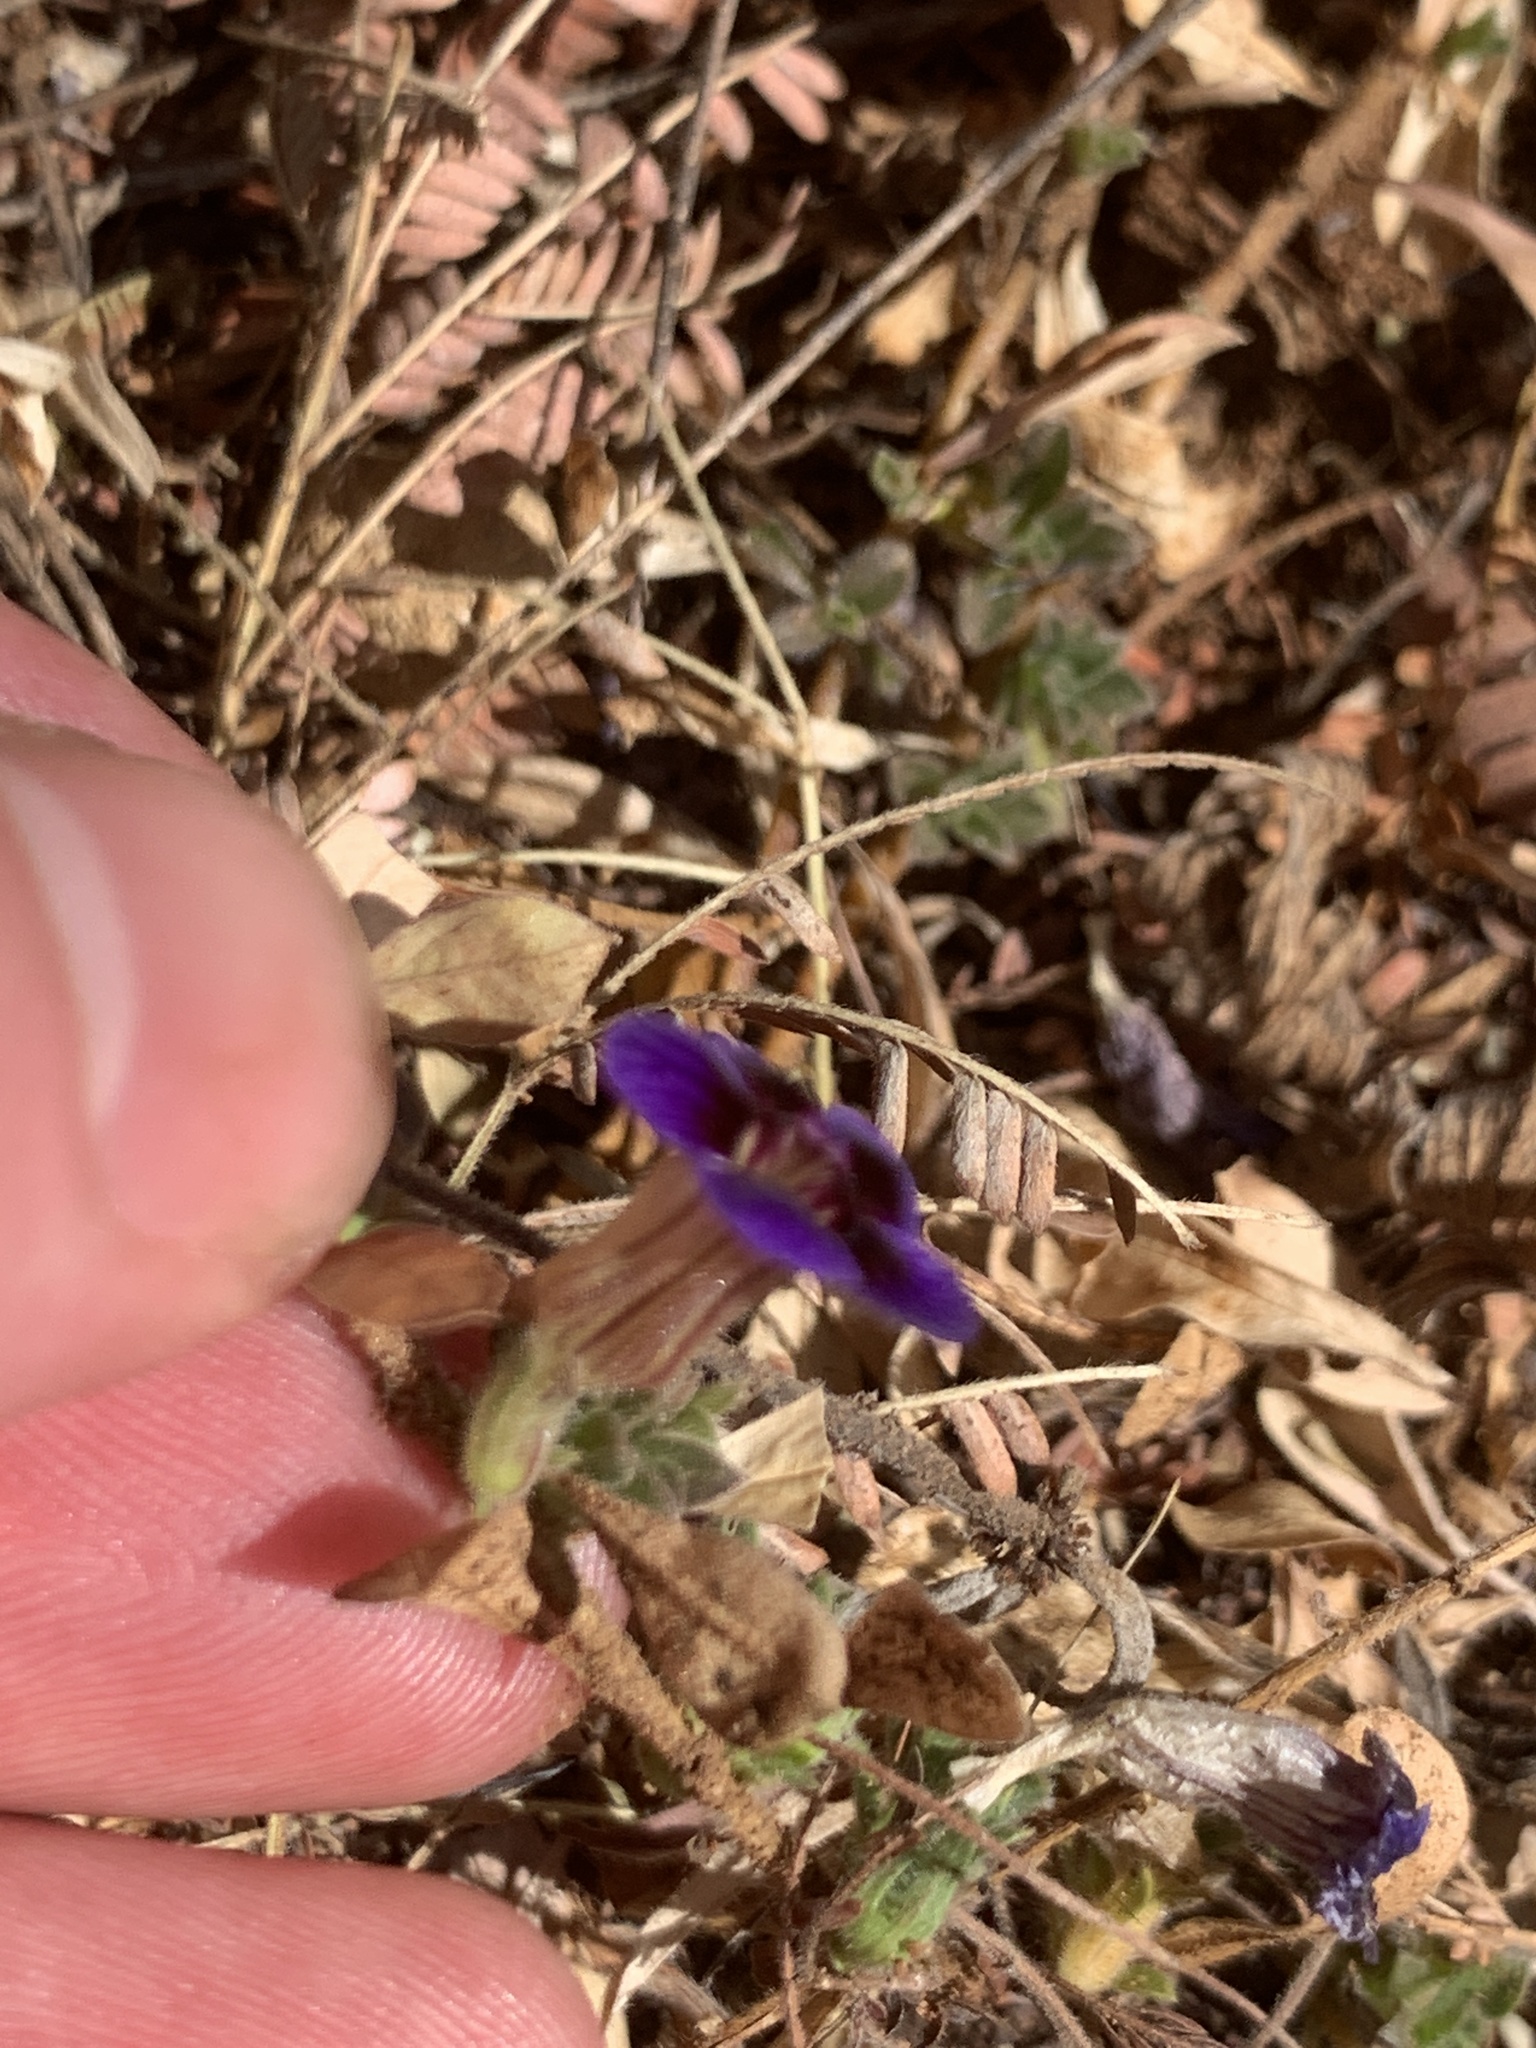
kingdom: Plantae
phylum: Tracheophyta
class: Magnoliopsida
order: Lamiales
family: Scrophulariaceae
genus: Aptosimum
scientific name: Aptosimum elongatum
